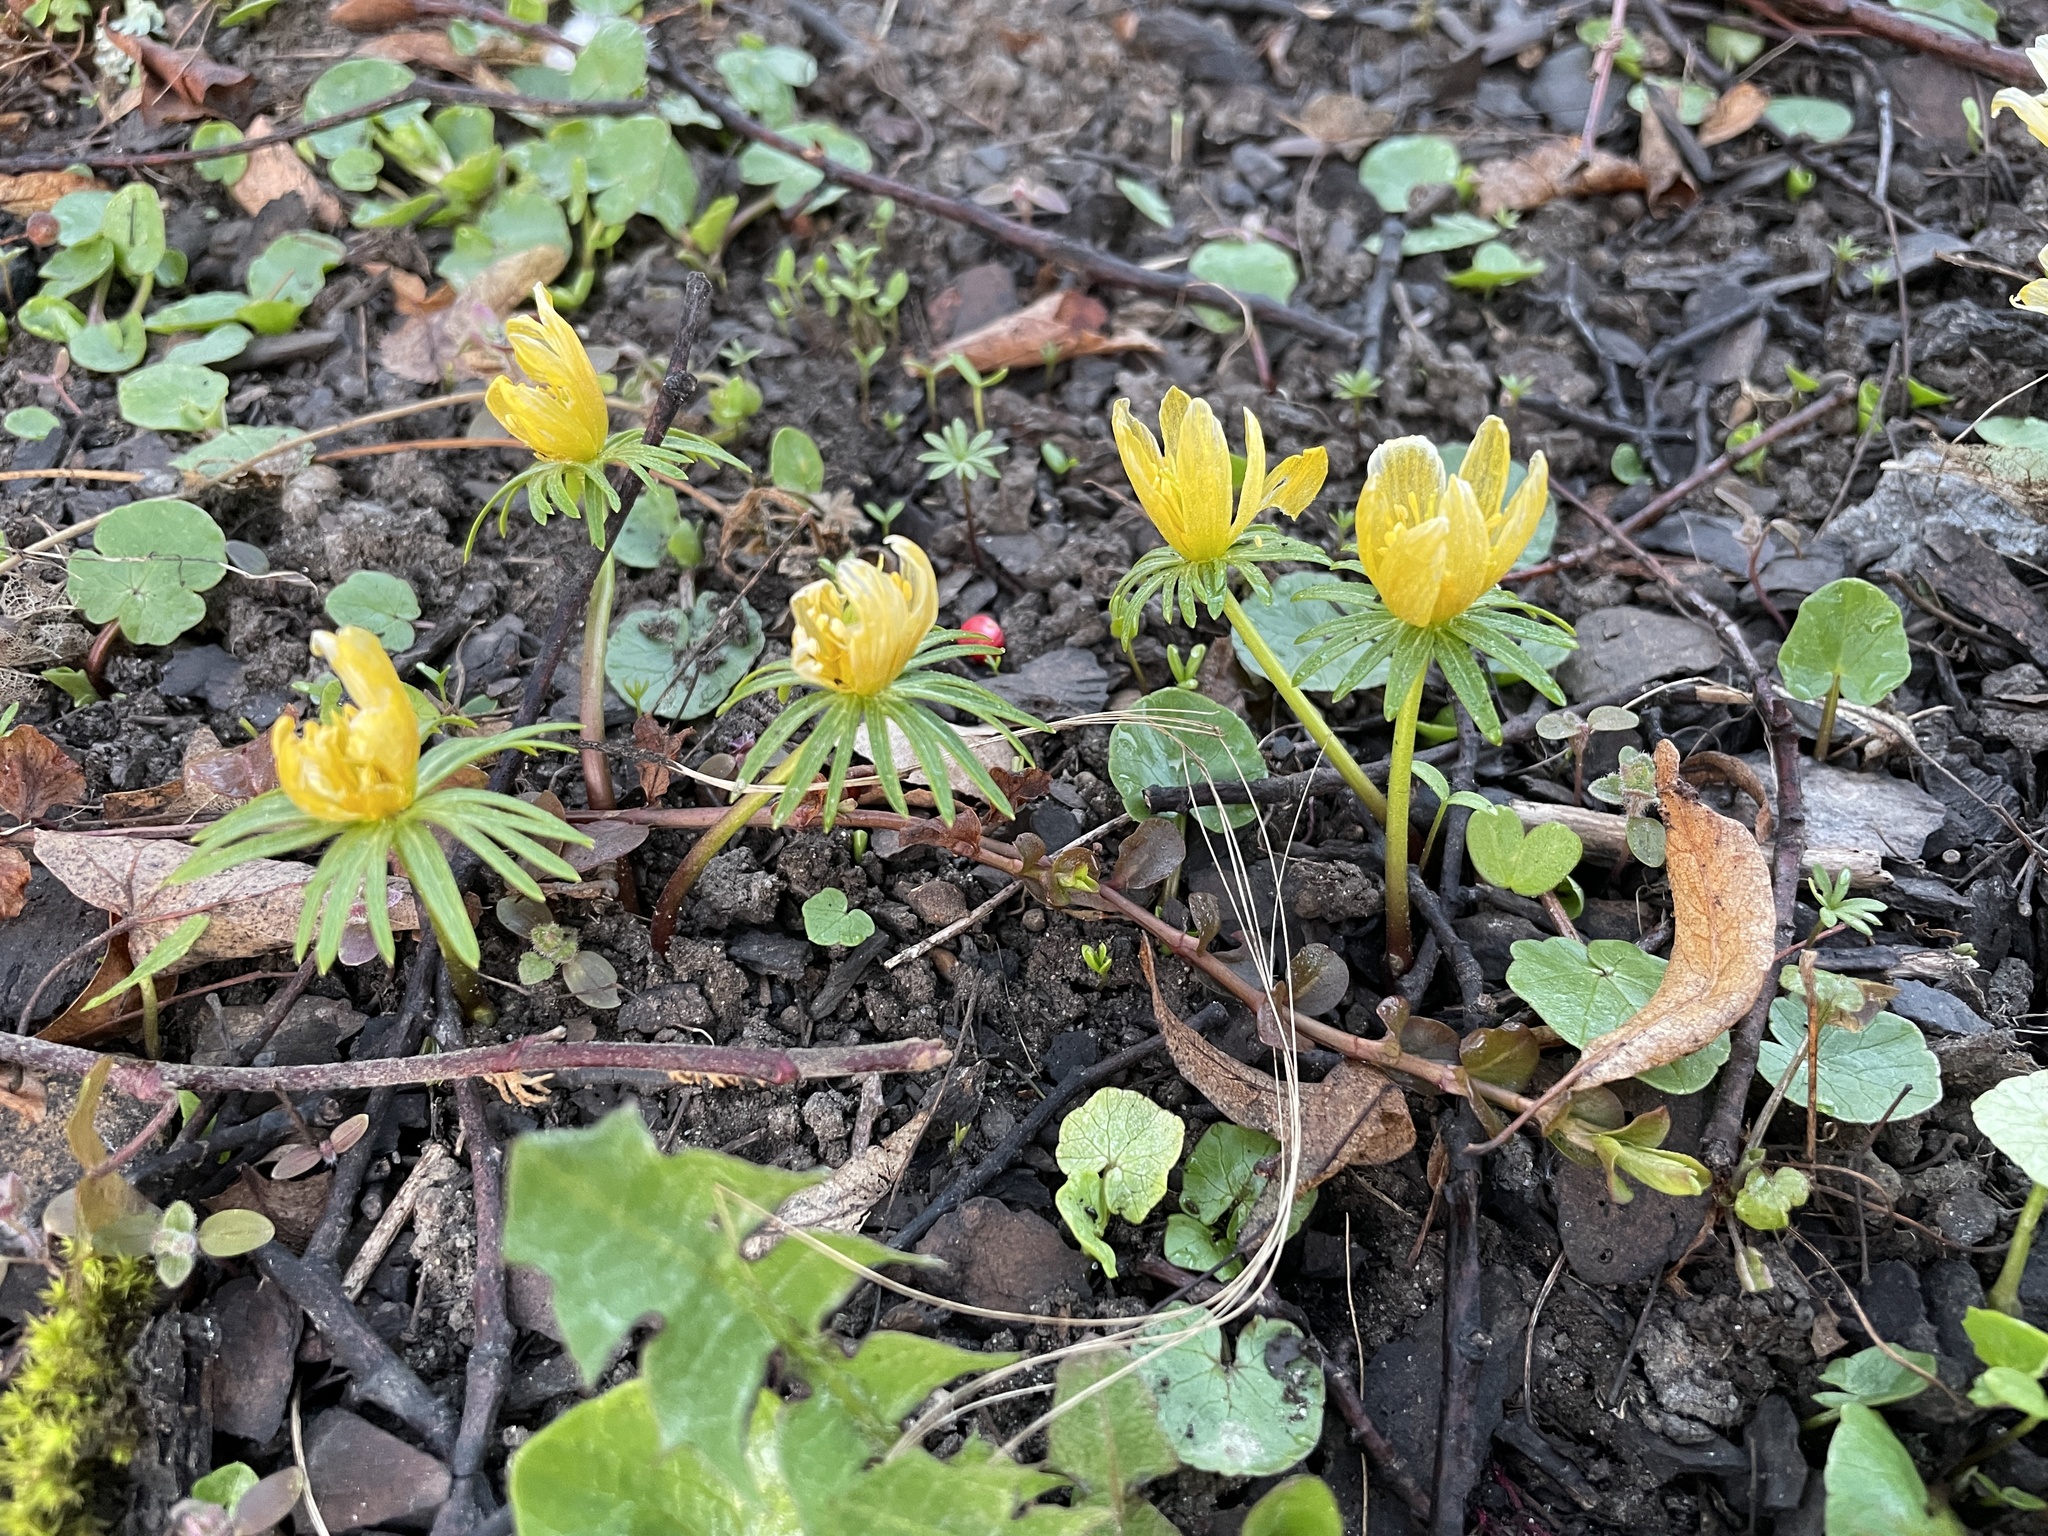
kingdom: Plantae
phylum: Tracheophyta
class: Magnoliopsida
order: Ranunculales
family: Ranunculaceae
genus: Eranthis
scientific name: Eranthis hyemalis
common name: Winter aconite
